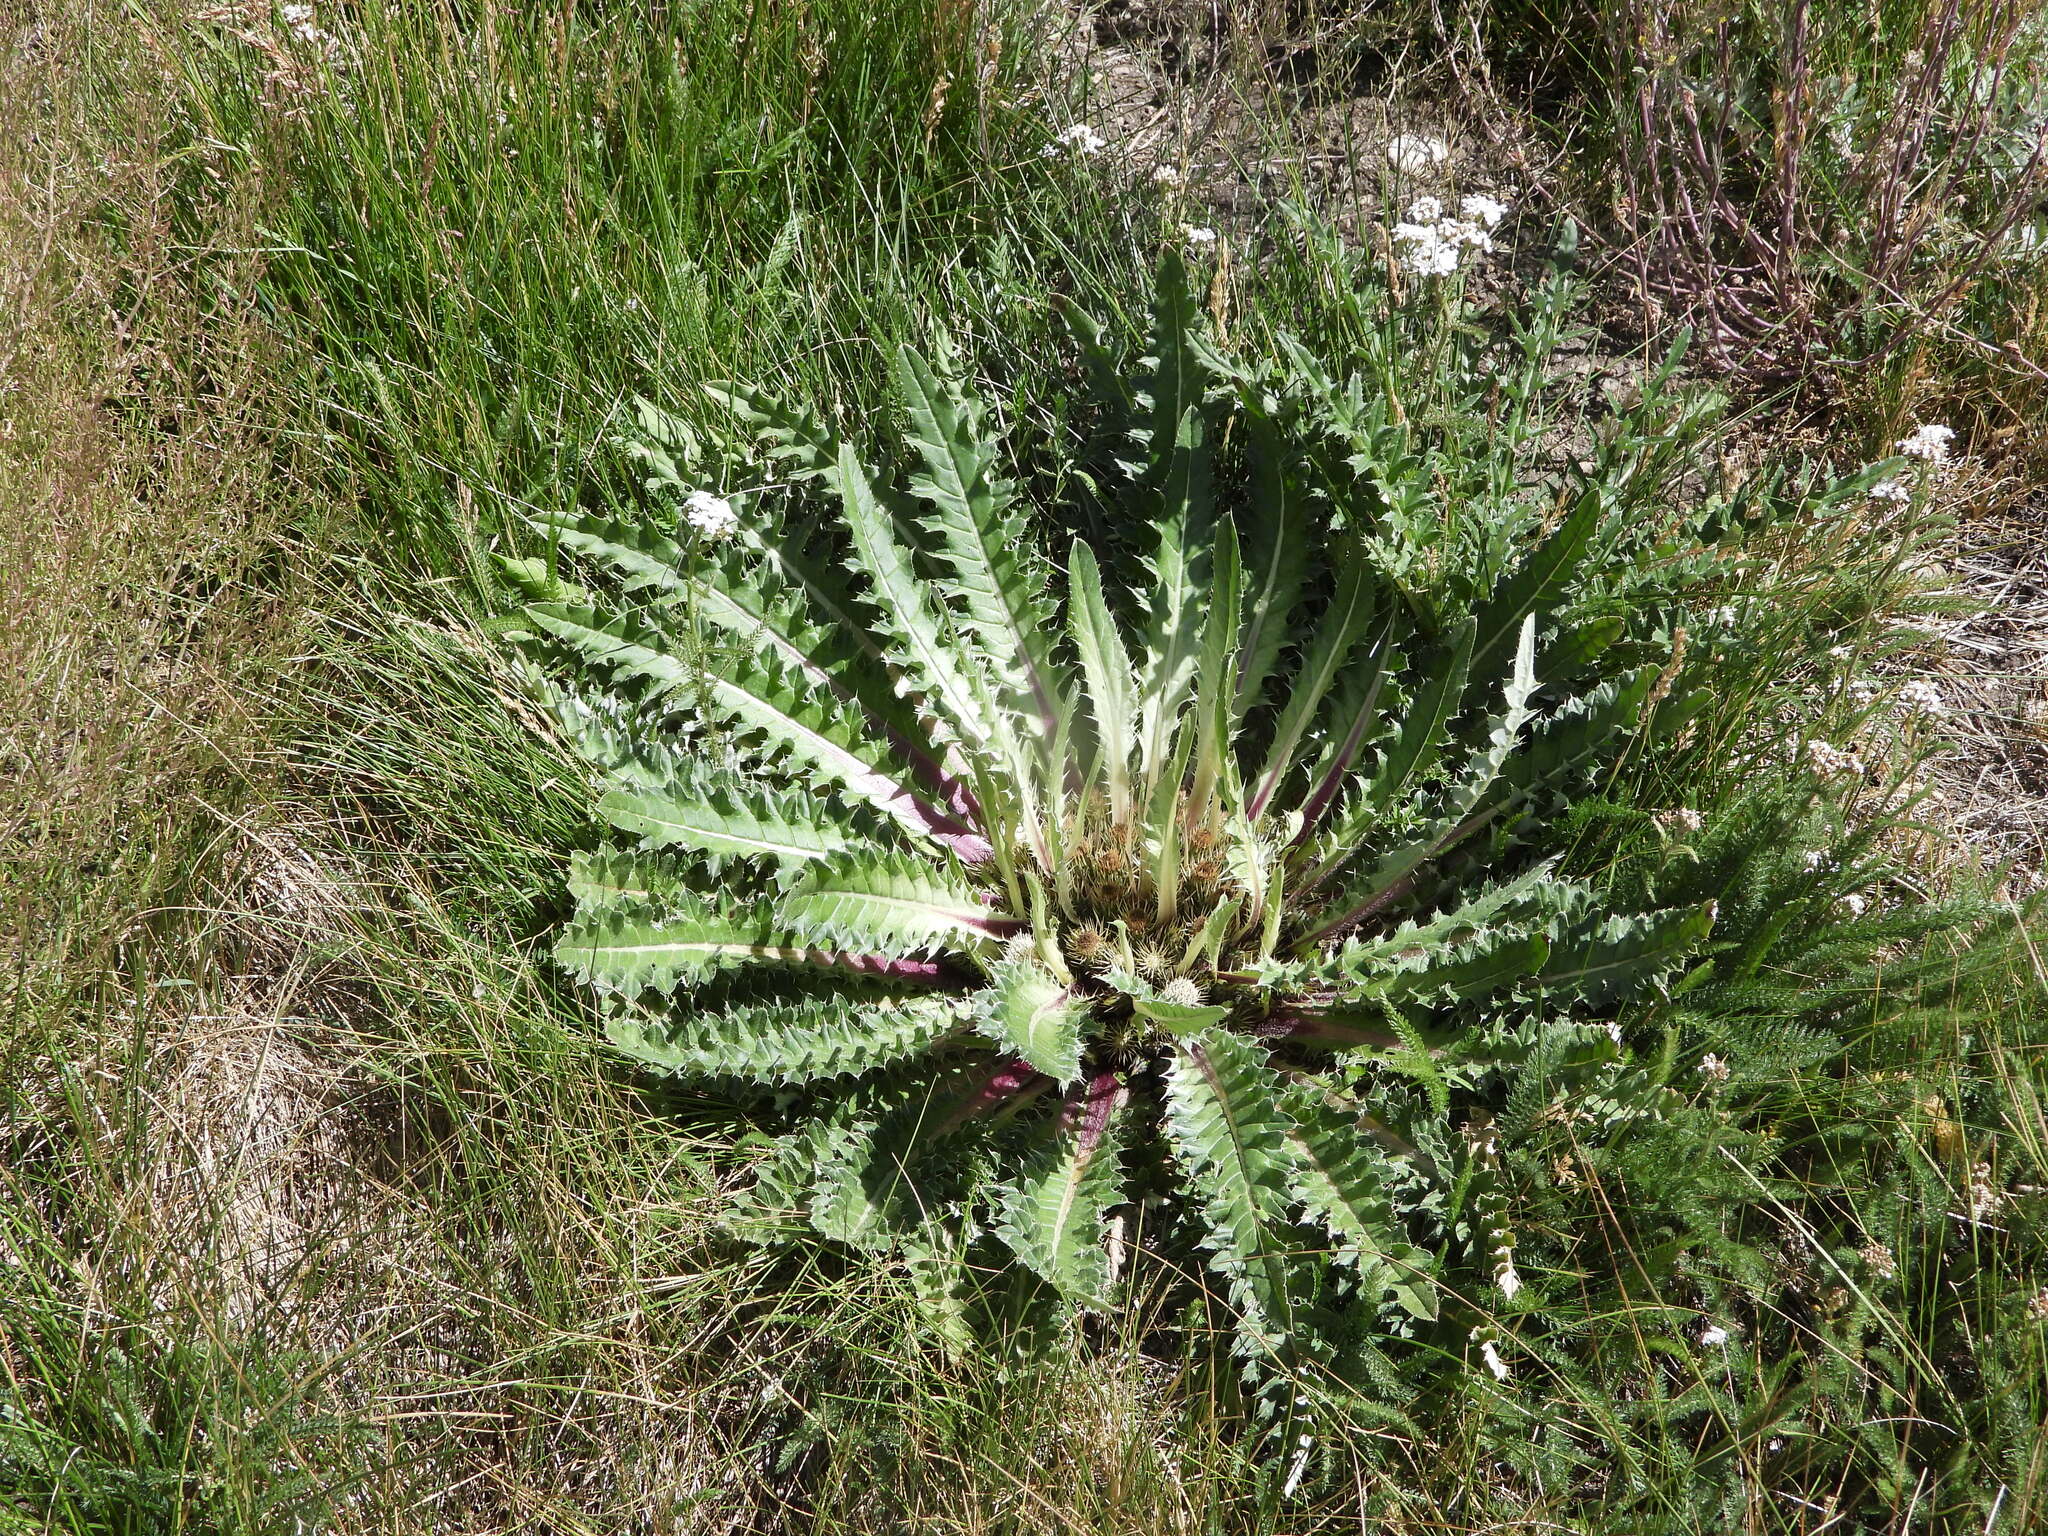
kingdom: Plantae
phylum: Tracheophyta
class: Magnoliopsida
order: Asterales
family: Asteraceae
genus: Cirsium
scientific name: Cirsium tioganum
